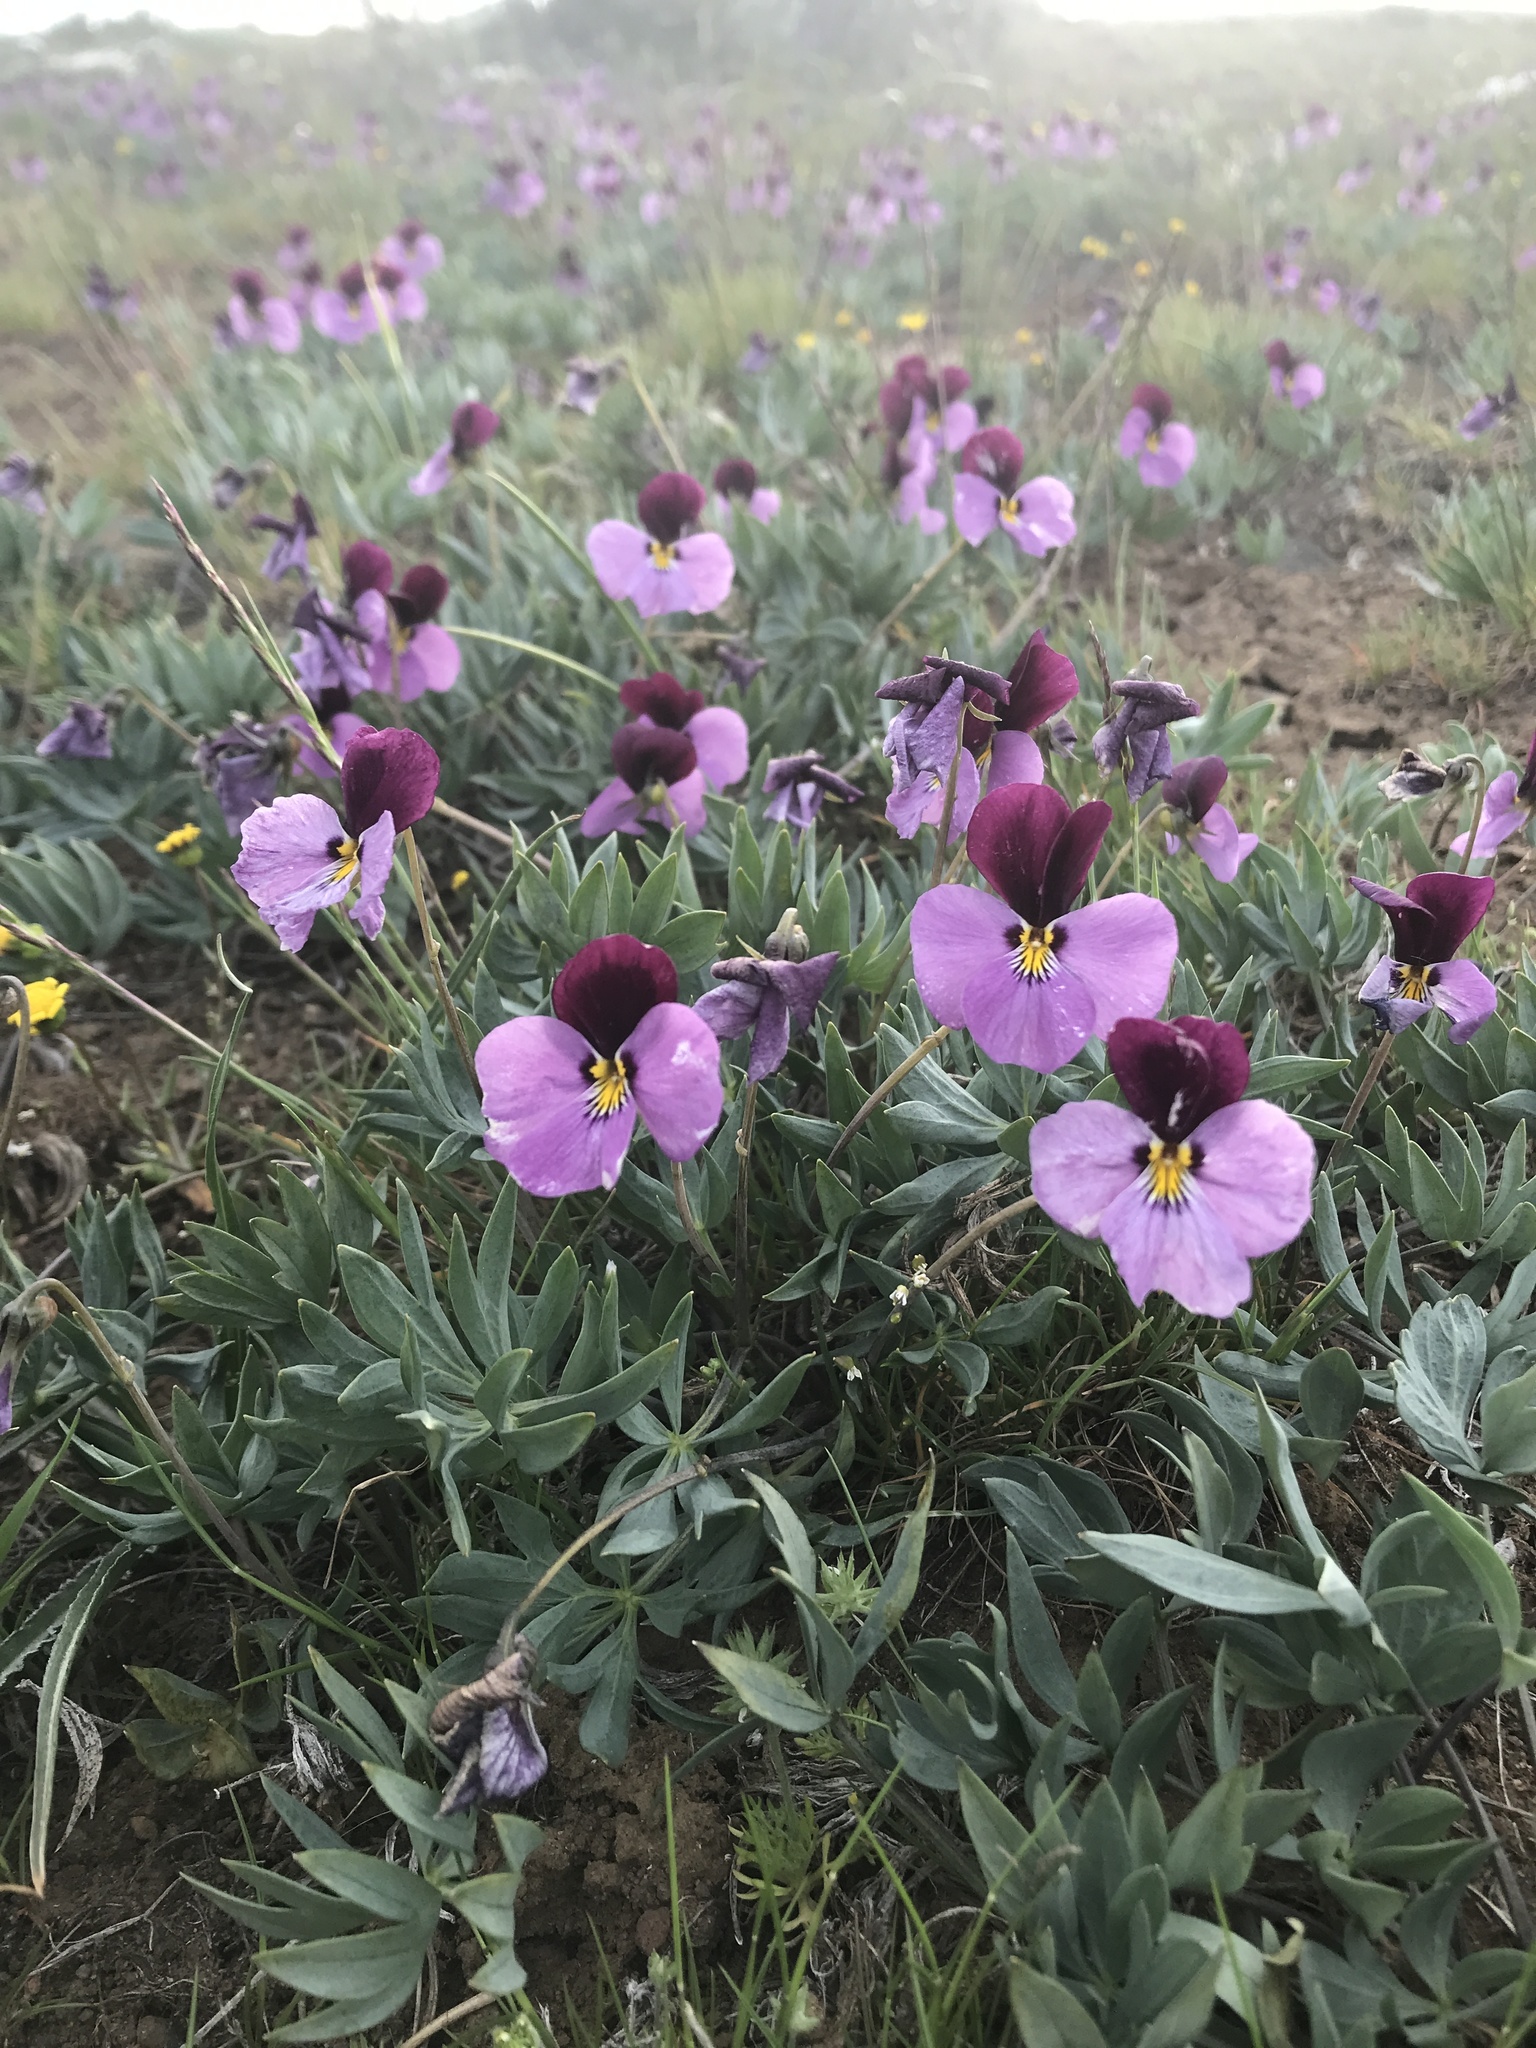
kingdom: Plantae
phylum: Tracheophyta
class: Magnoliopsida
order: Malpighiales
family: Violaceae
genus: Viola
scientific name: Viola trinervata
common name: Sagebrush violet
